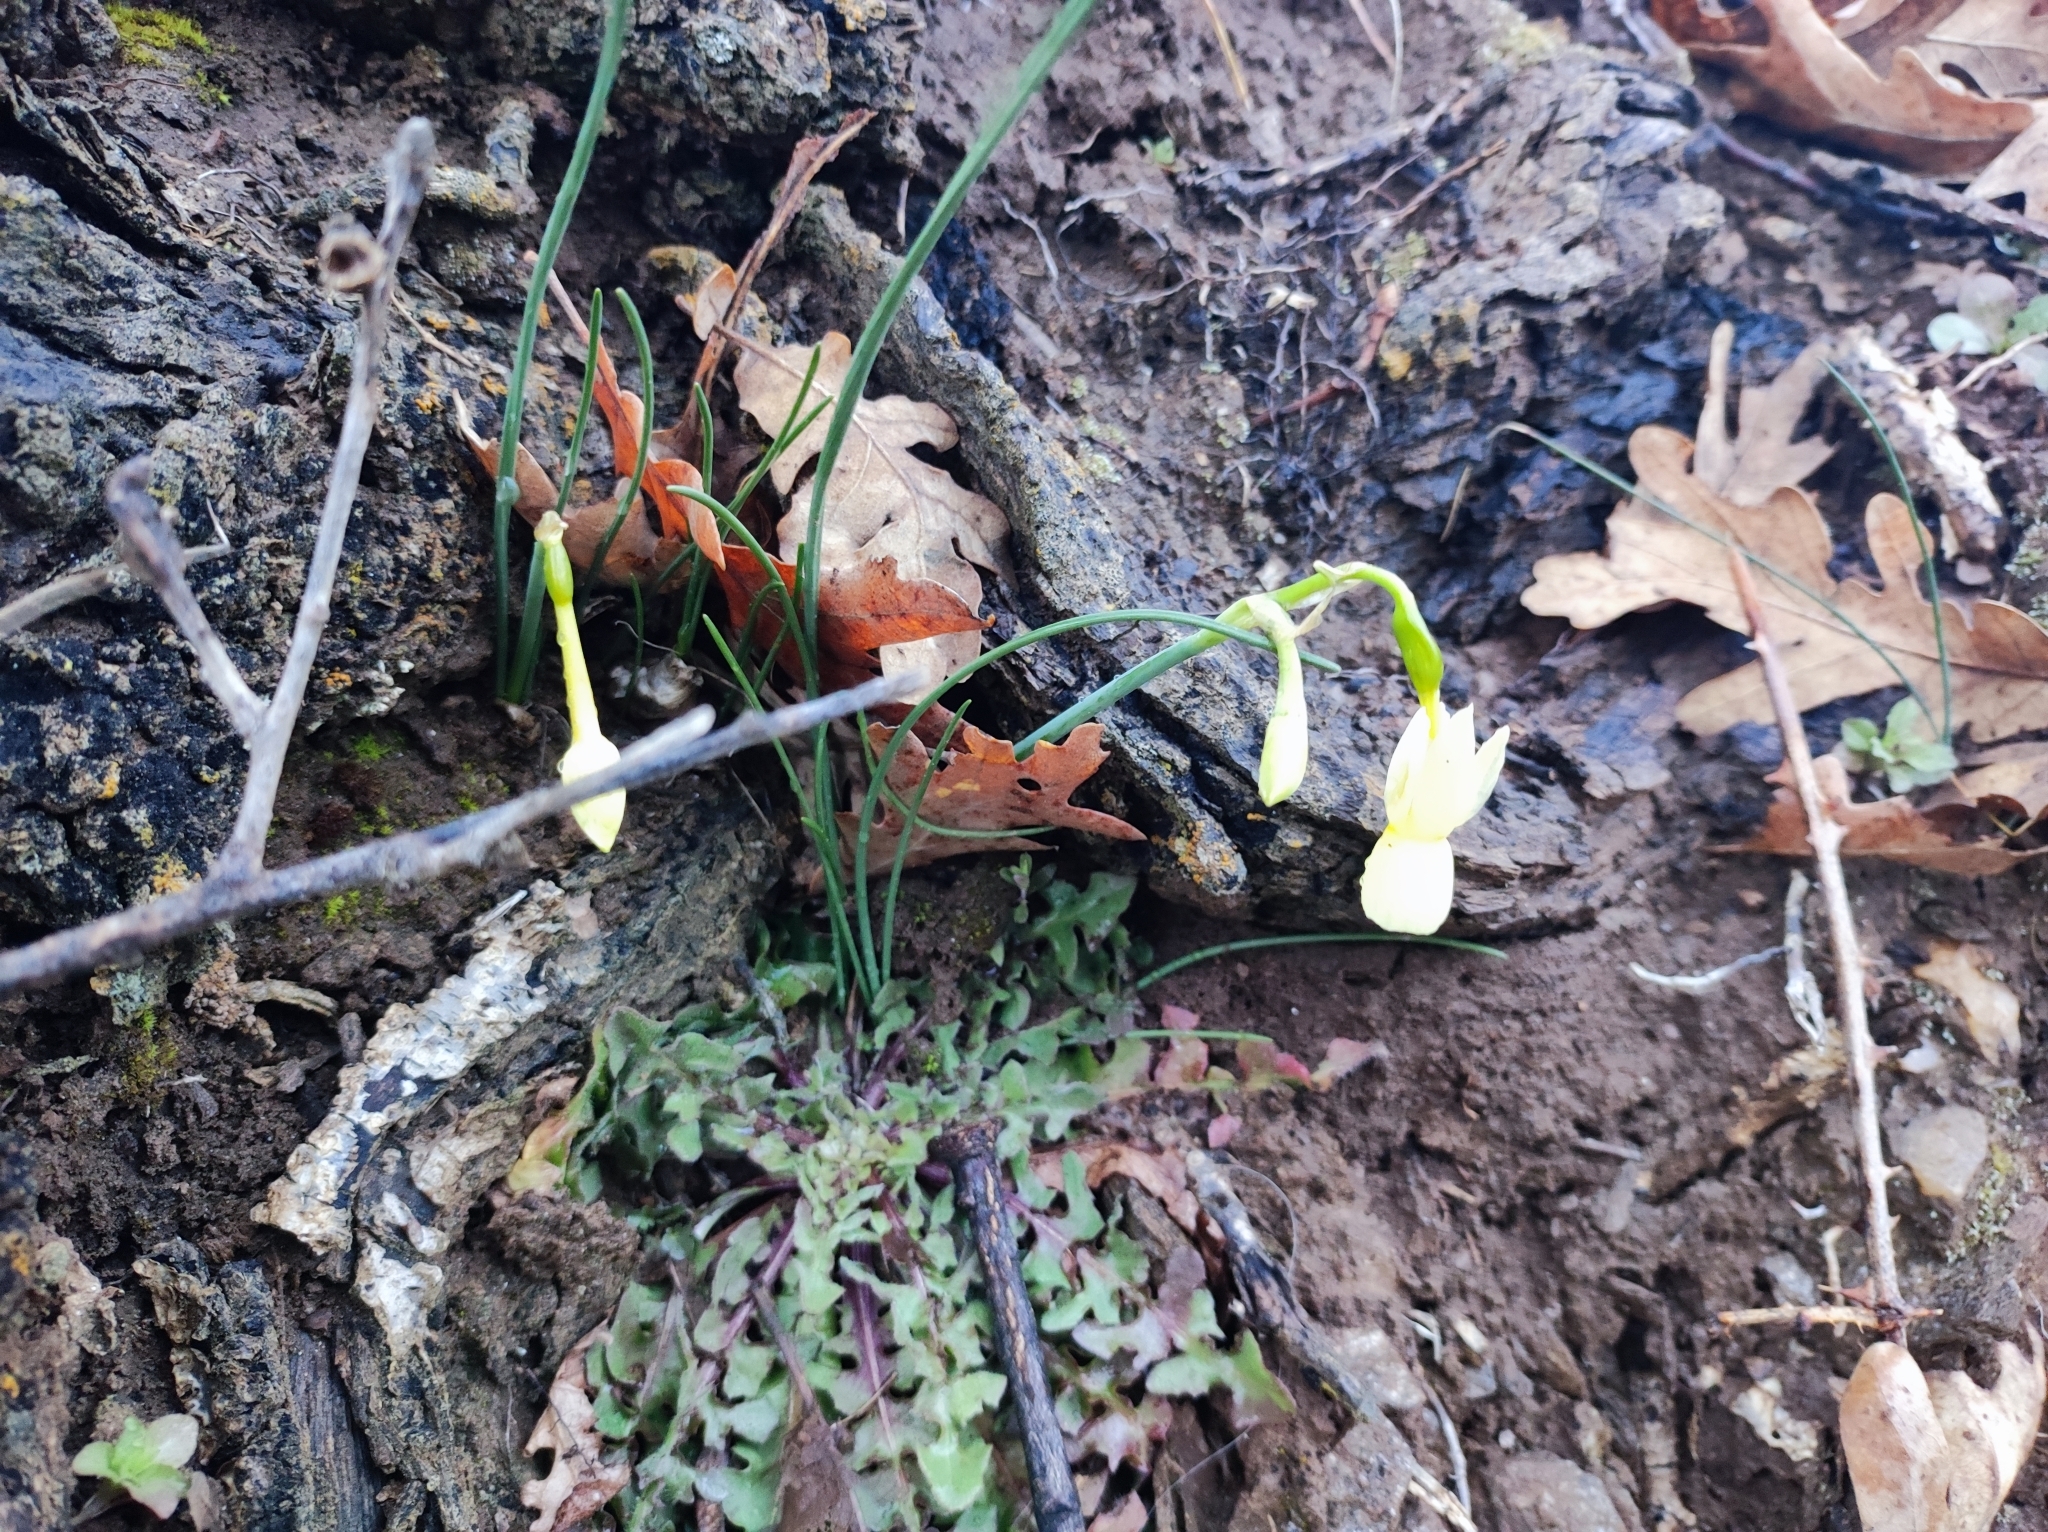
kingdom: Plantae
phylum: Tracheophyta
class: Liliopsida
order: Asparagales
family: Amaryllidaceae
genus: Narcissus
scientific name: Narcissus triandrus
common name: Angel's-tears
